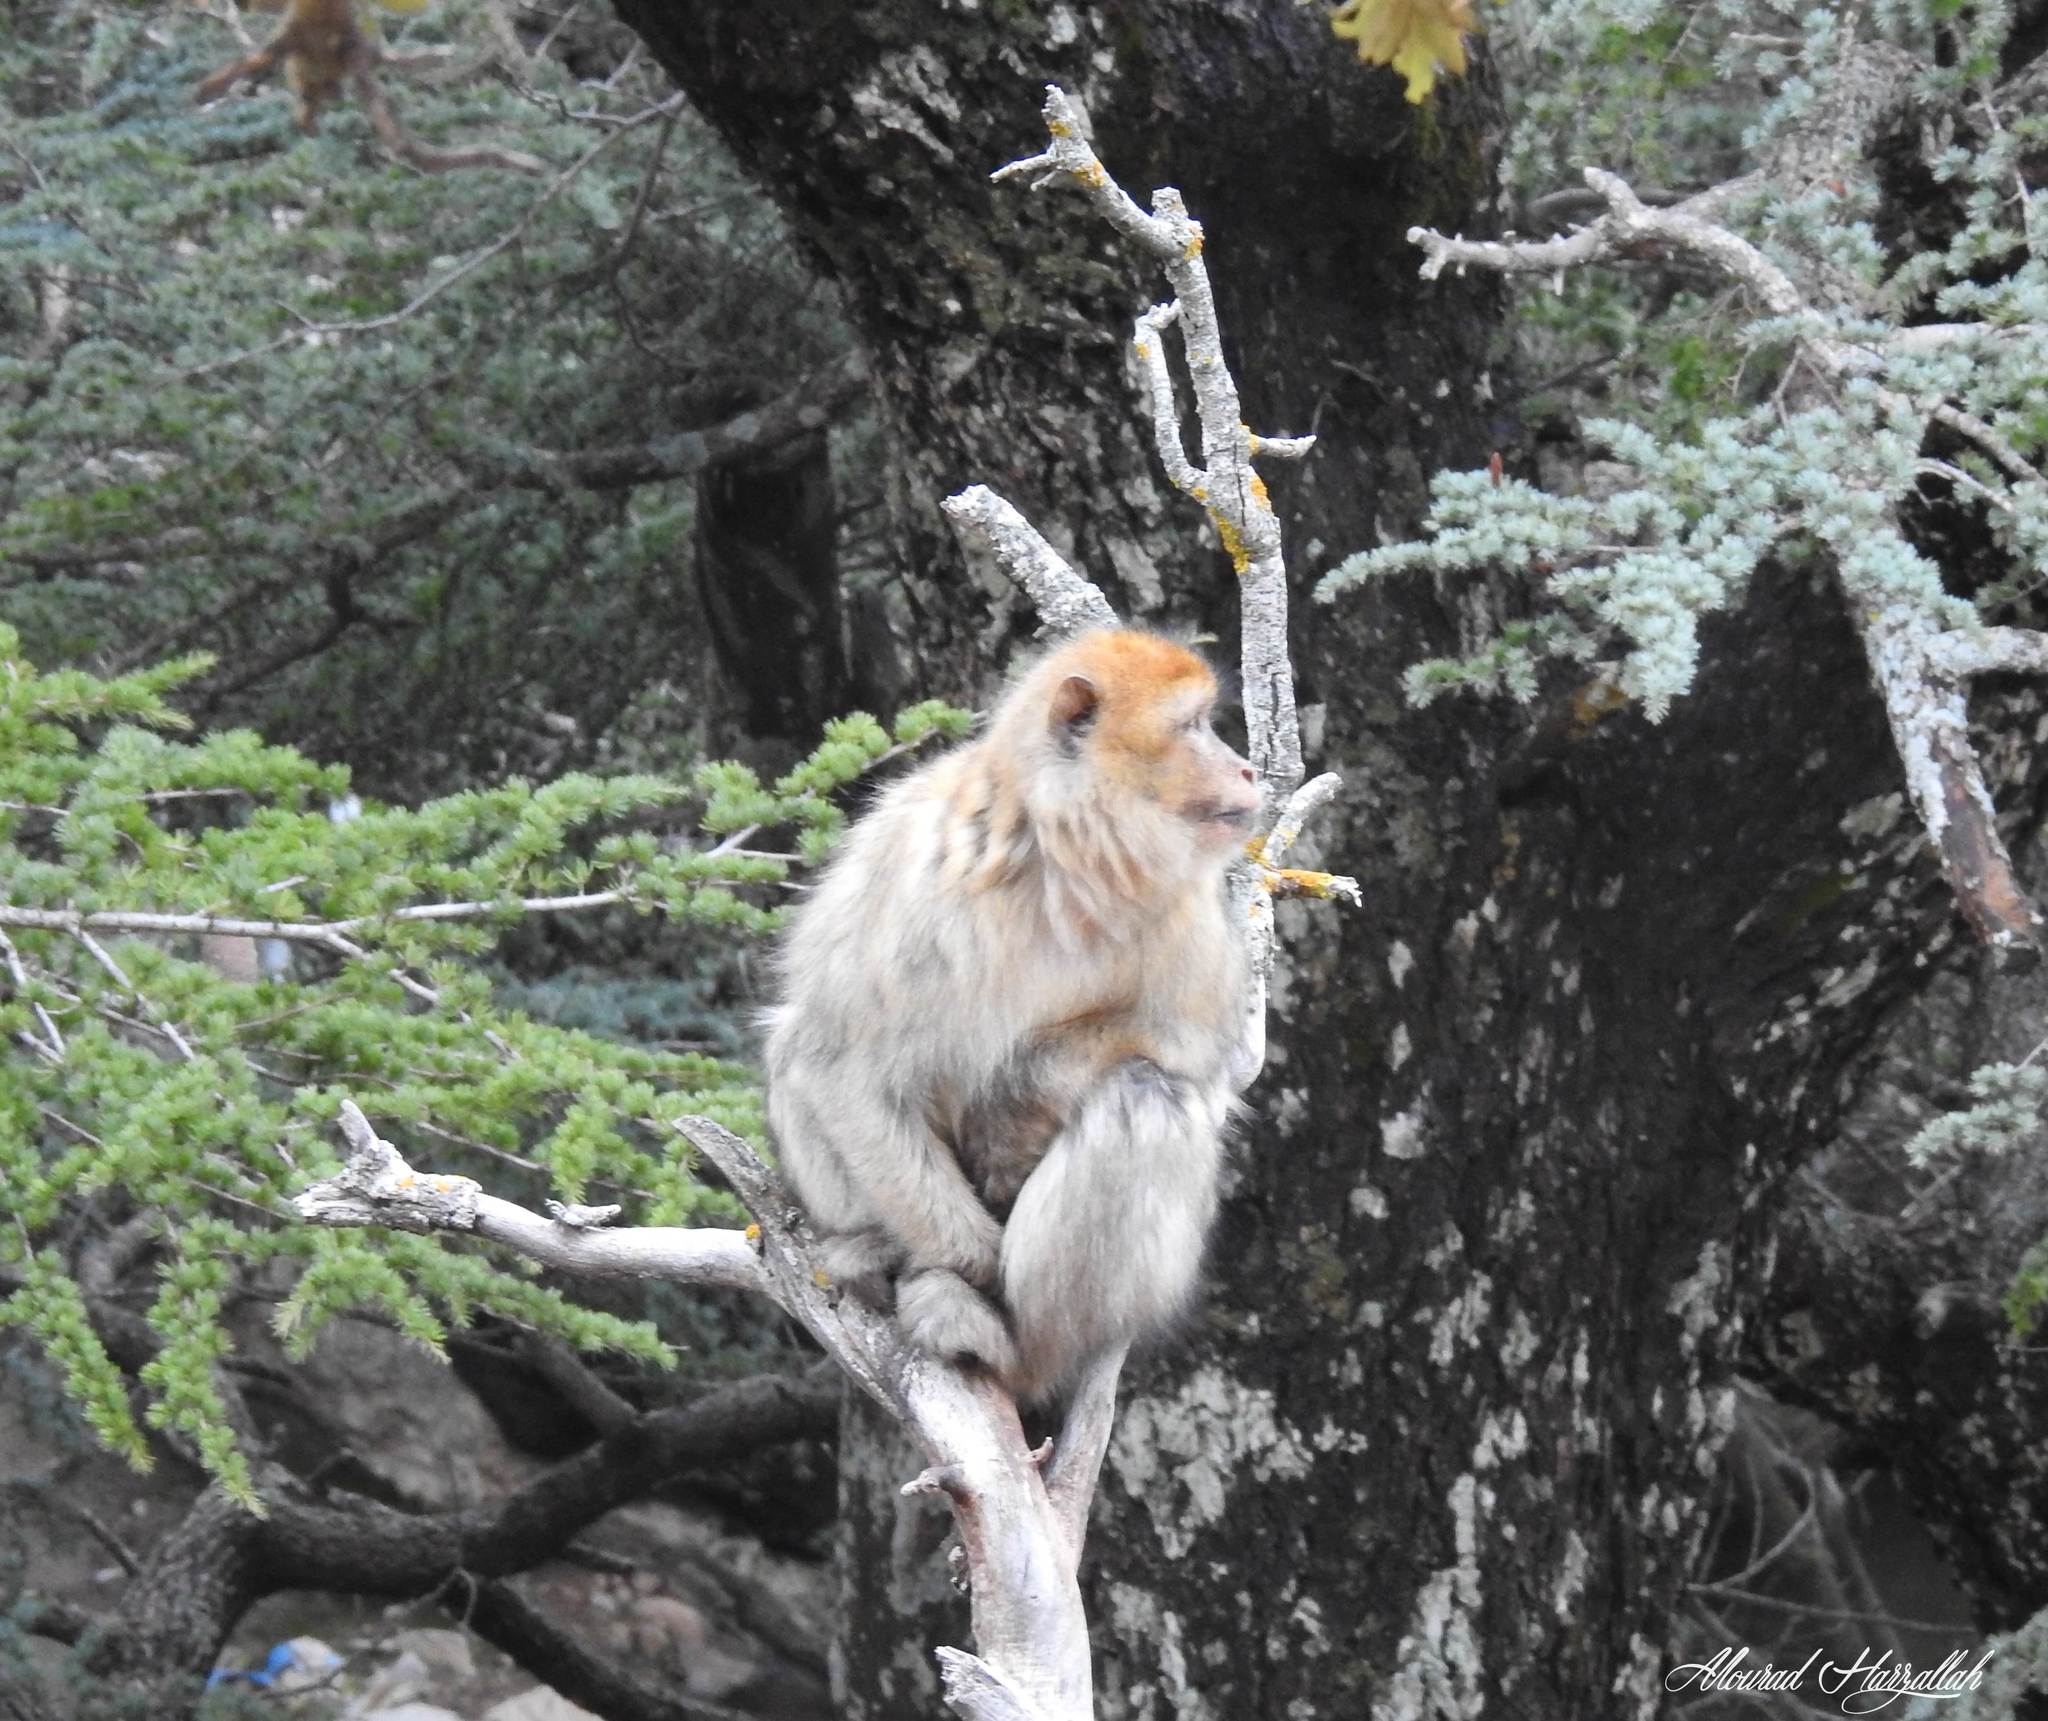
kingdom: Animalia
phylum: Chordata
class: Mammalia
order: Primates
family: Cercopithecidae
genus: Macaca
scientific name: Macaca sylvanus
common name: Barbary macaque
